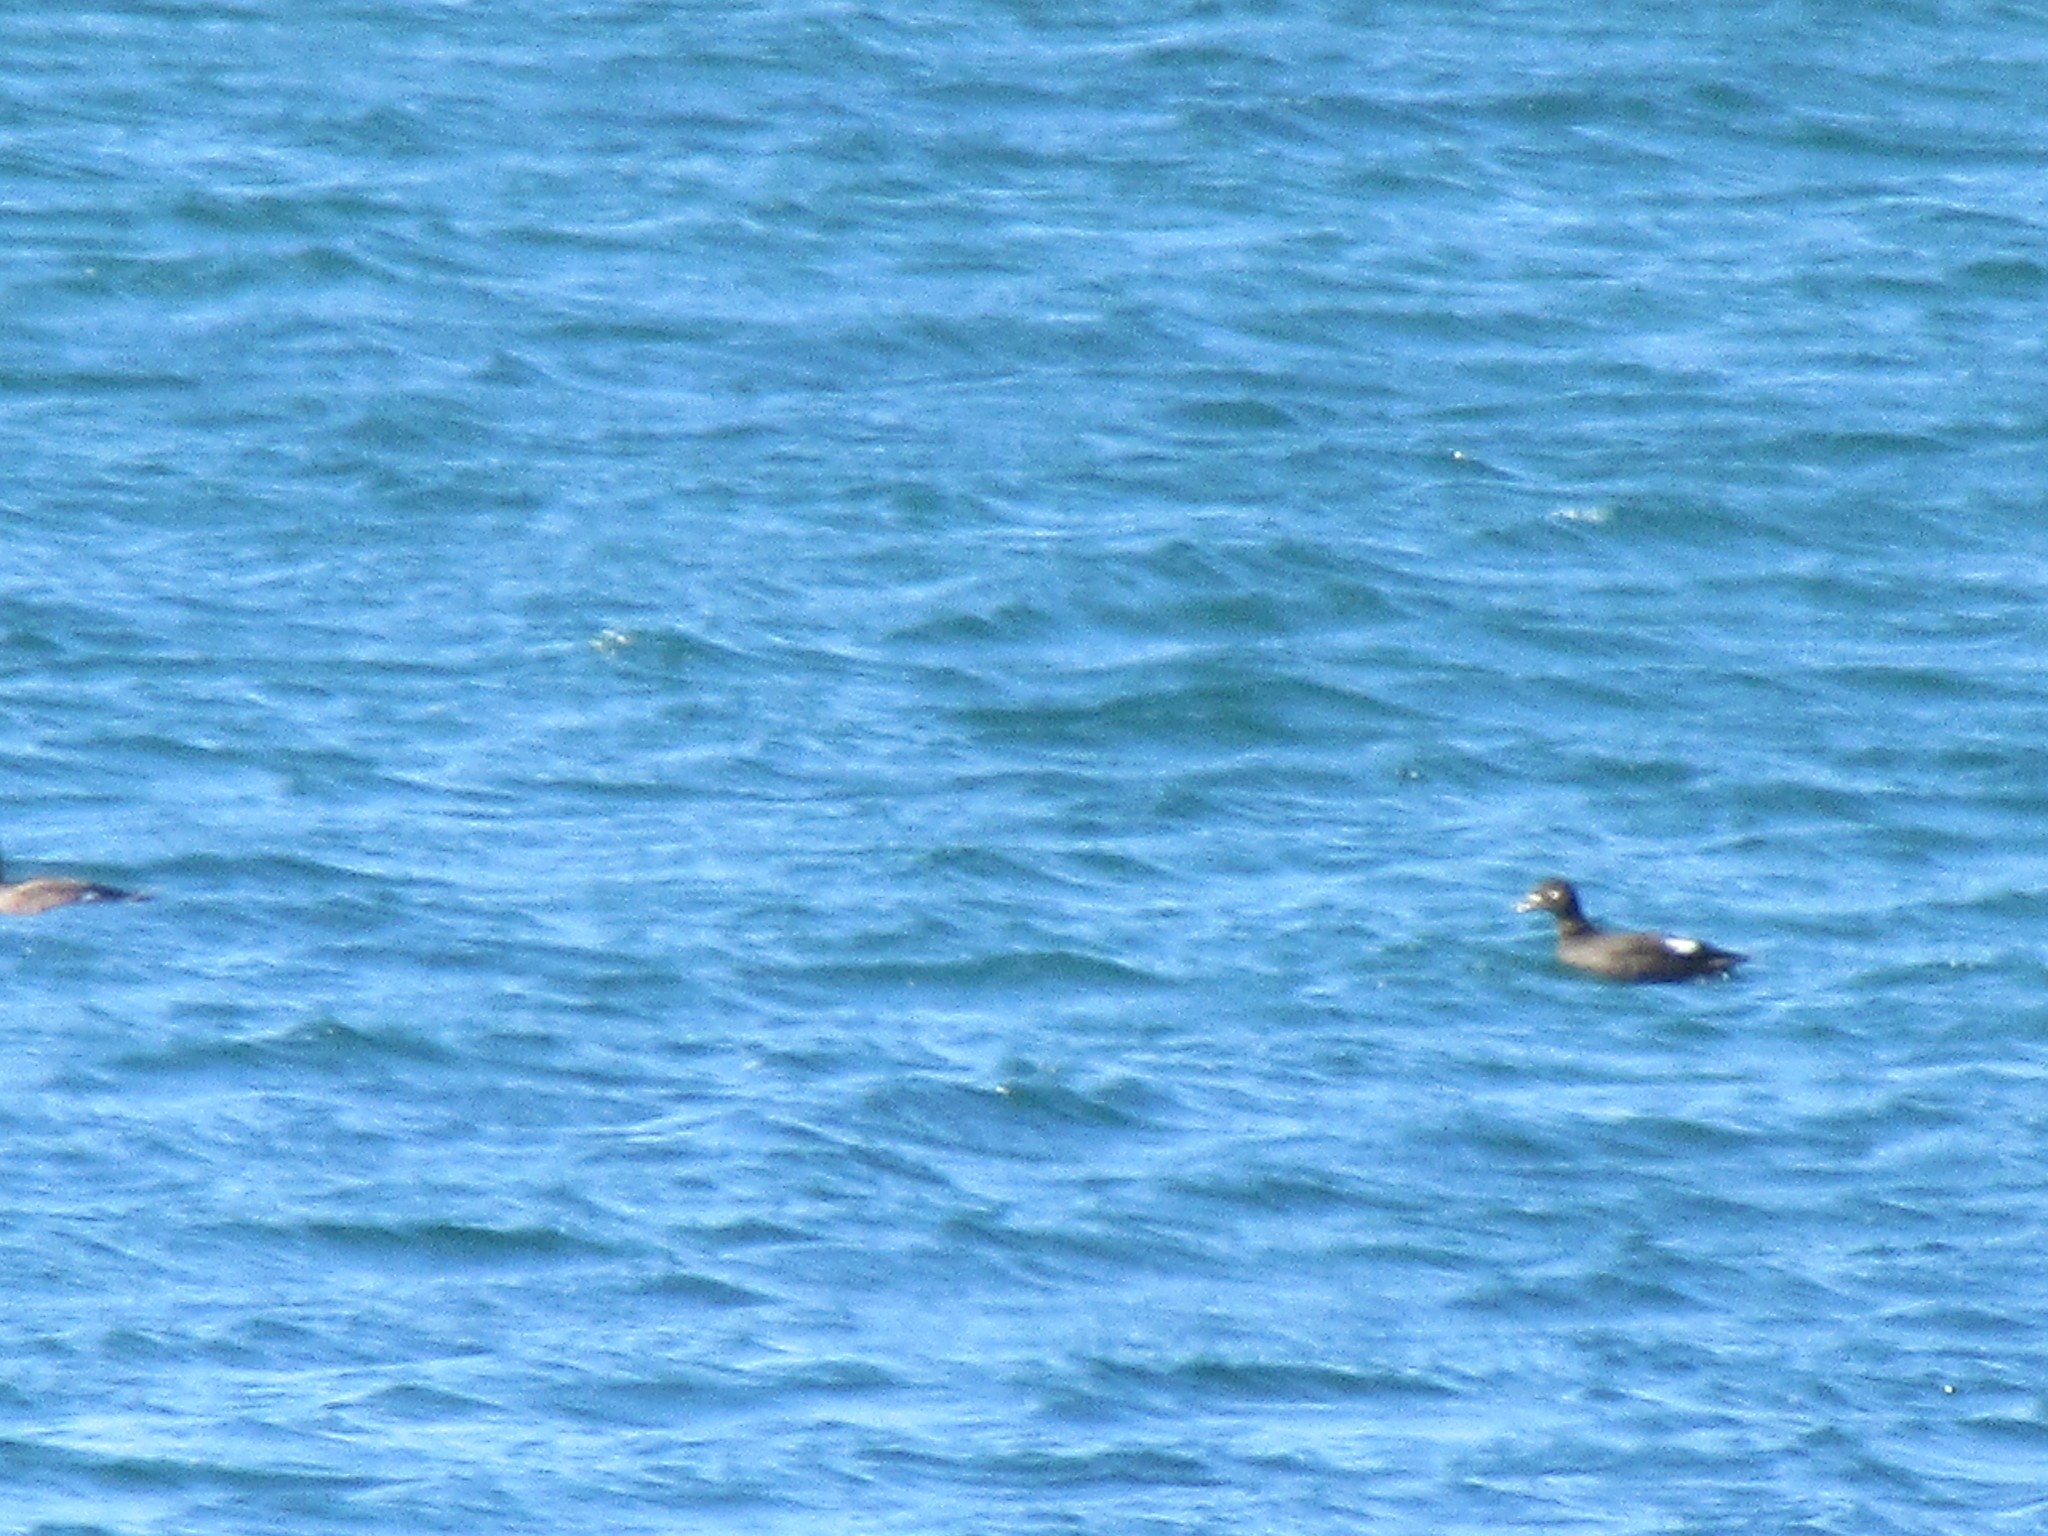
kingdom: Animalia
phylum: Chordata
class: Aves
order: Anseriformes
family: Anatidae
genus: Melanitta
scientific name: Melanitta deglandi
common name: White-winged scoter
